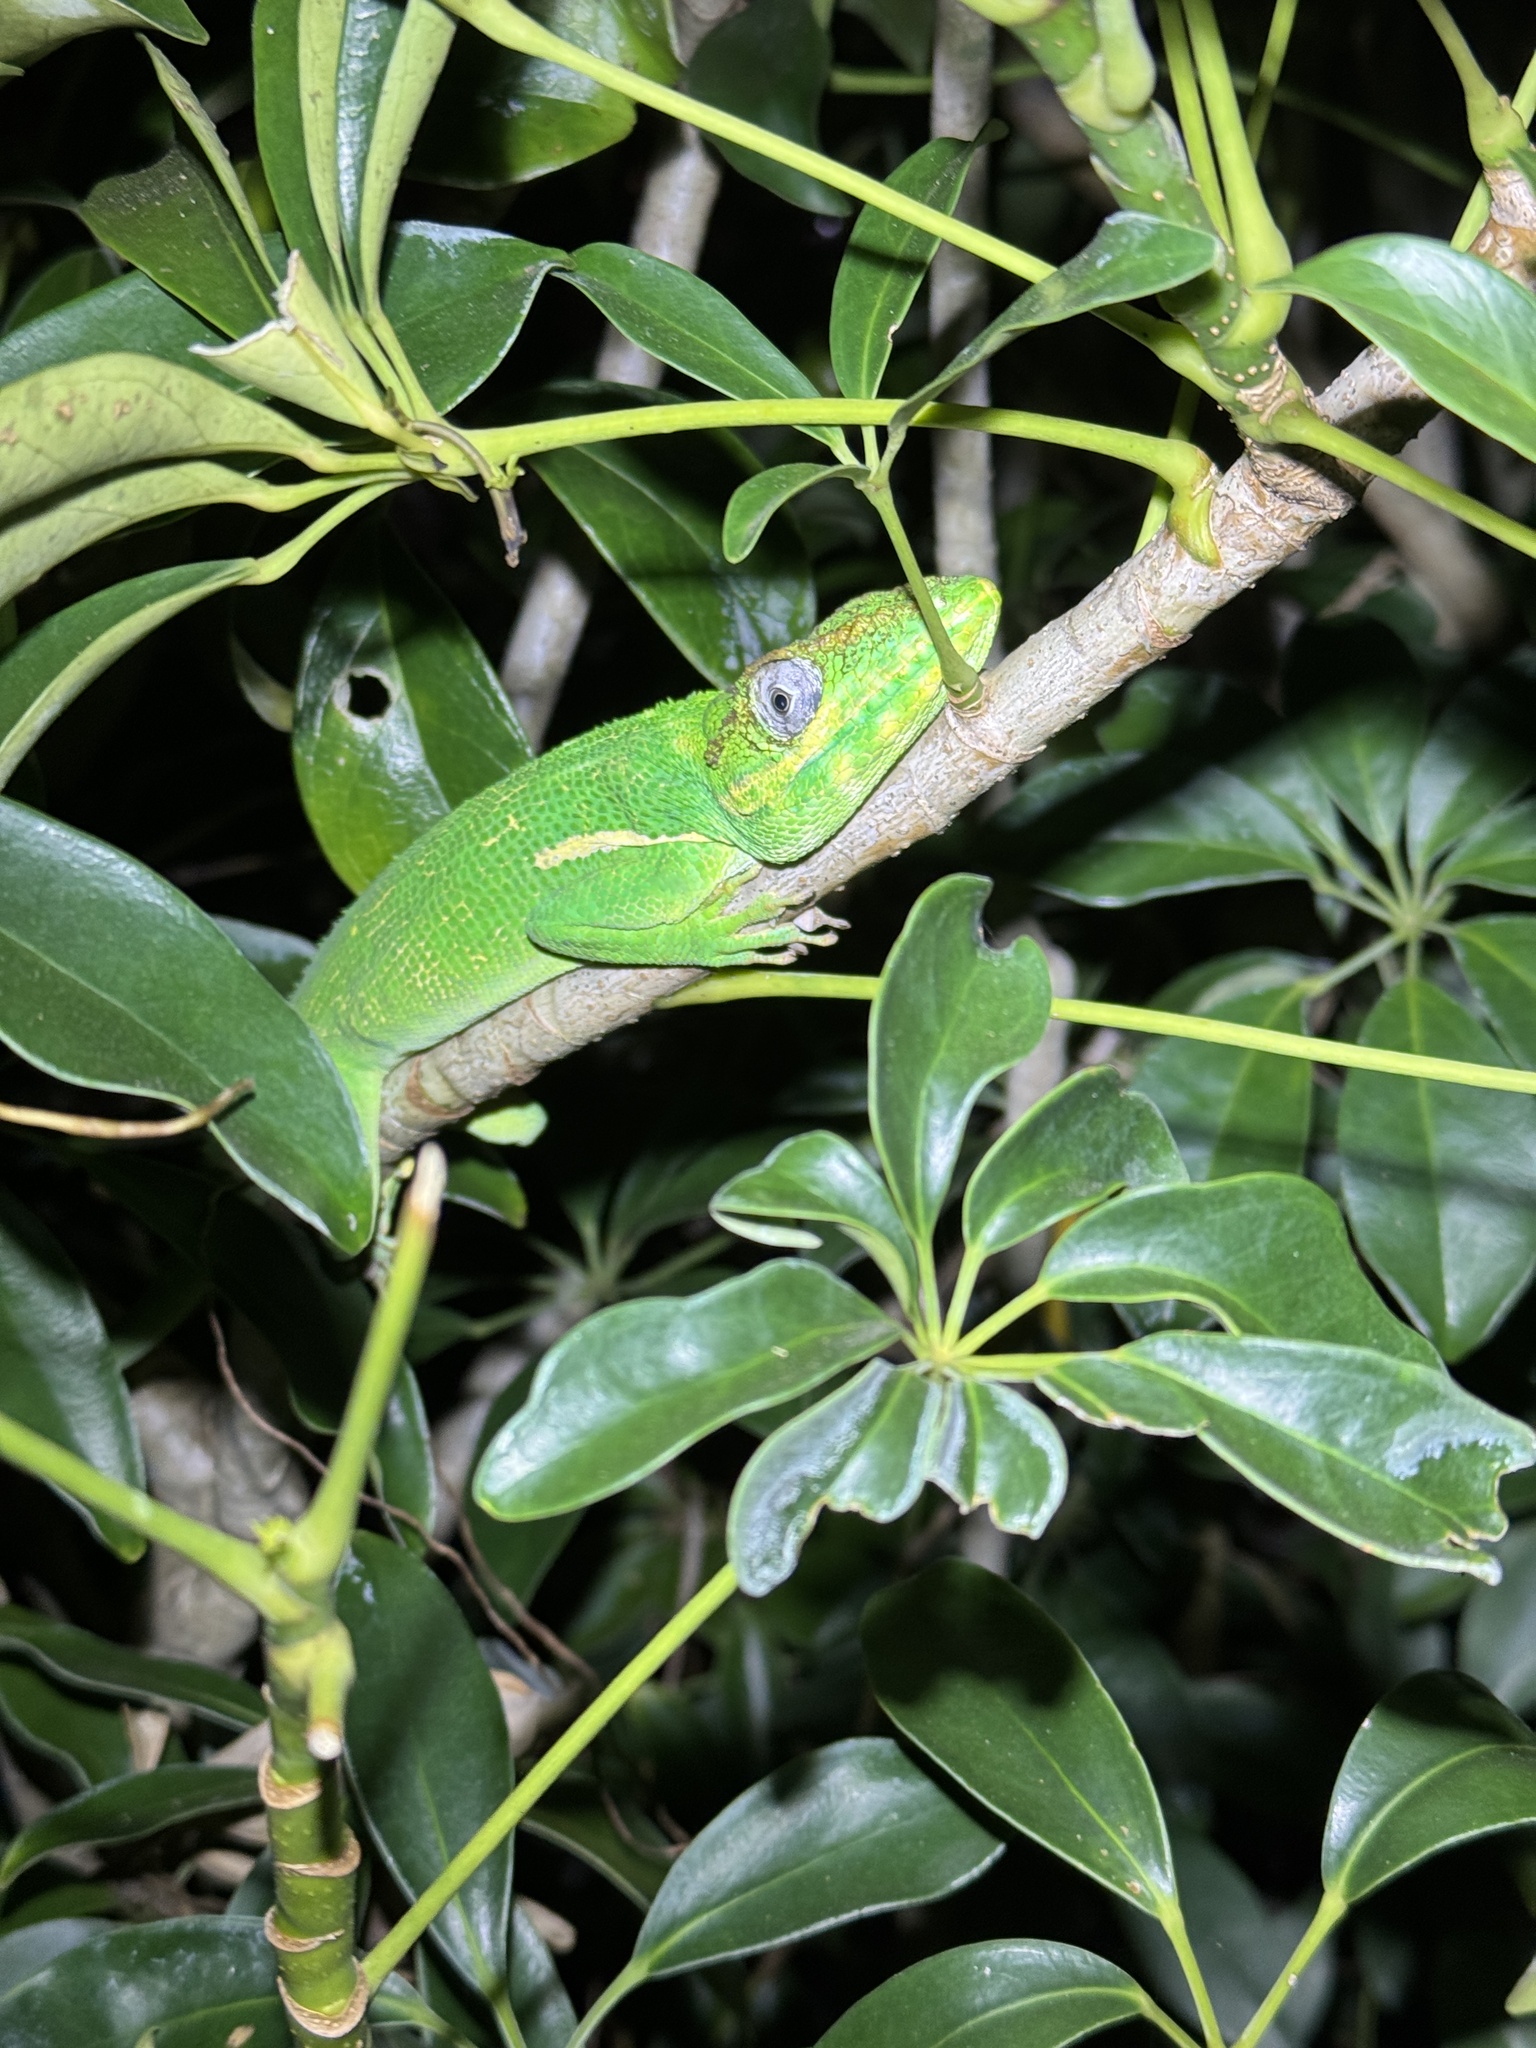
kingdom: Animalia
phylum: Chordata
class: Squamata
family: Dactyloidae
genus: Anolis
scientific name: Anolis equestris
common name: Knight anole
